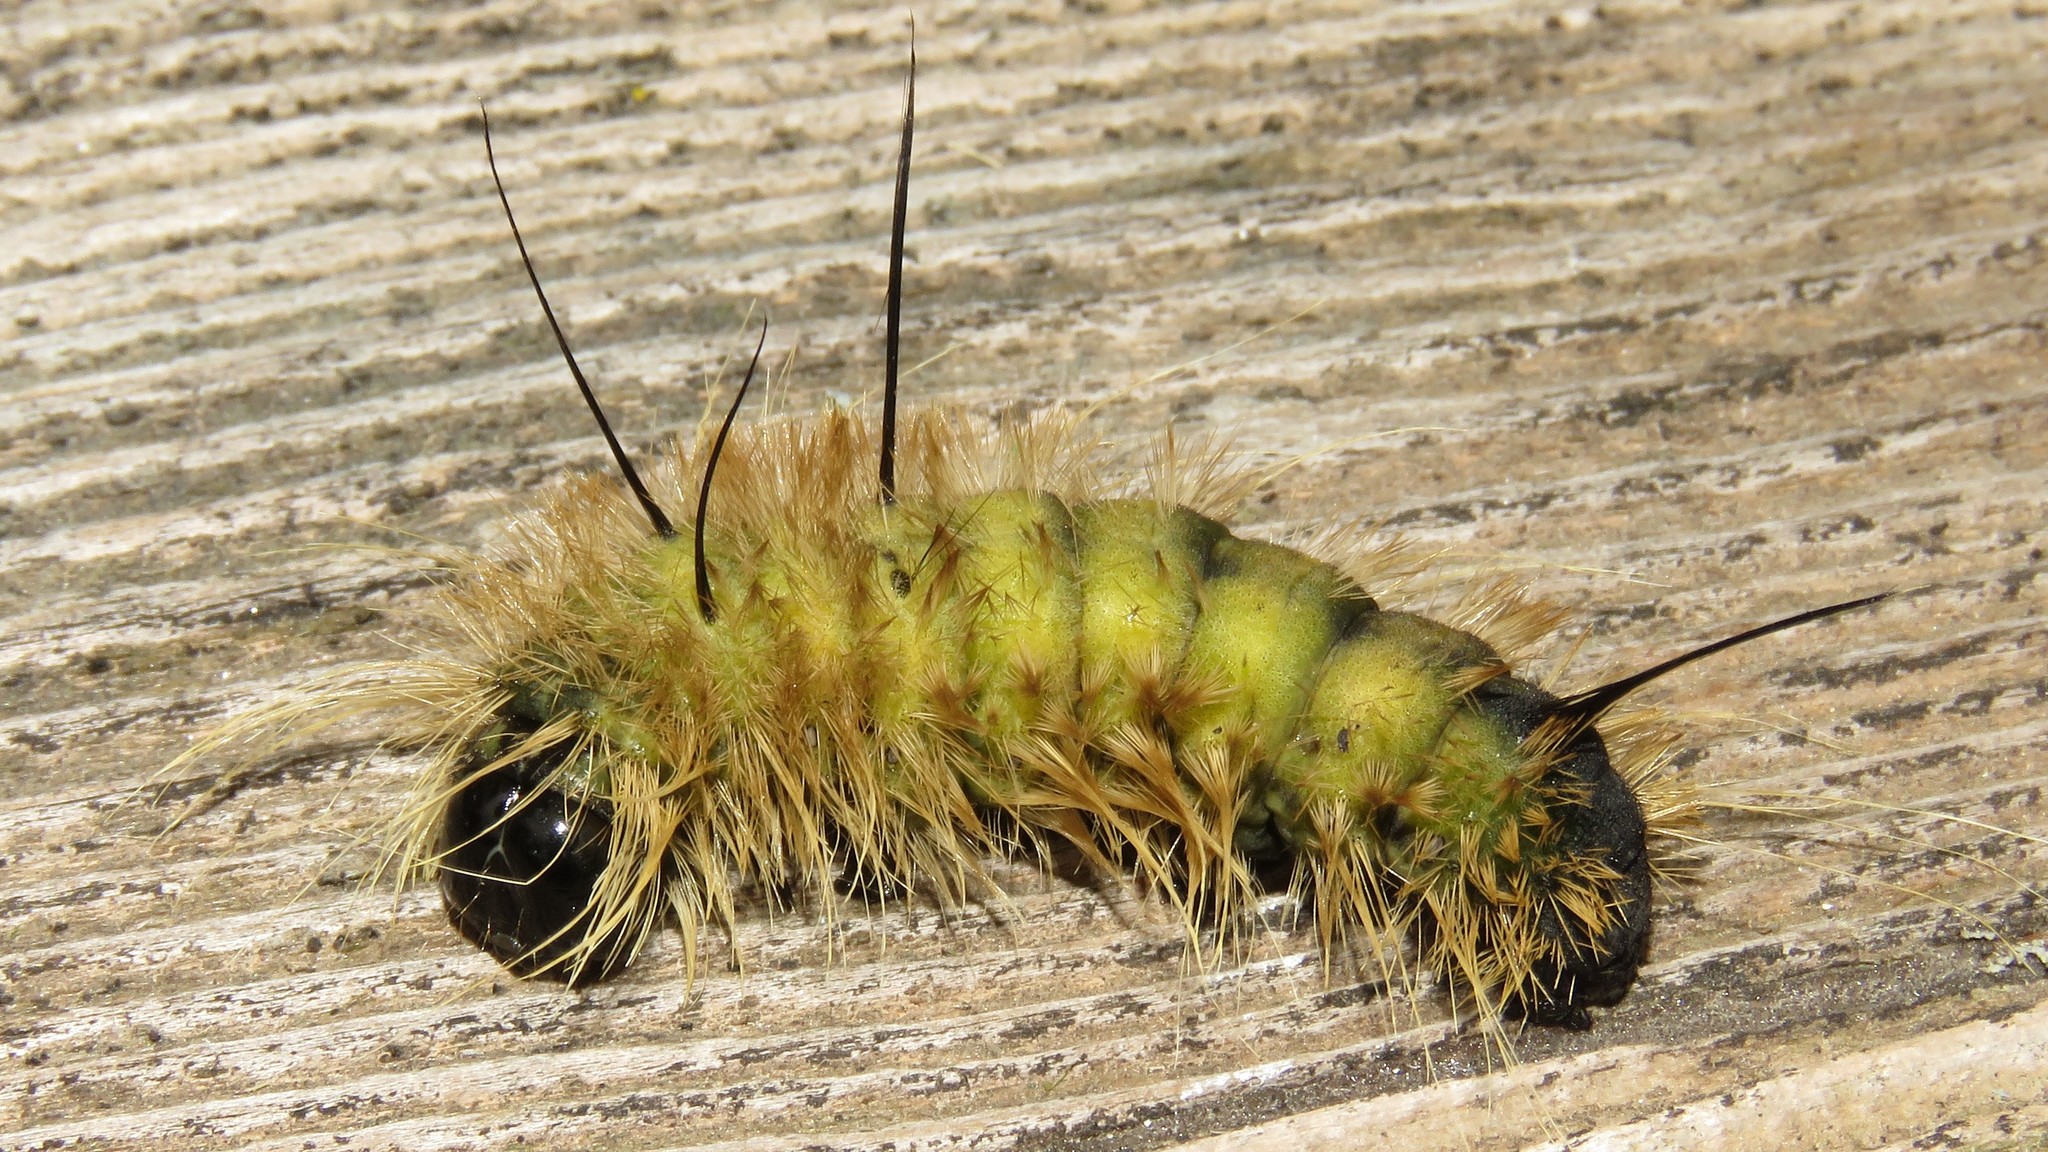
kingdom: Animalia
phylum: Arthropoda
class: Insecta
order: Lepidoptera
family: Noctuidae
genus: Acronicta
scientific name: Acronicta americana
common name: American dagger
